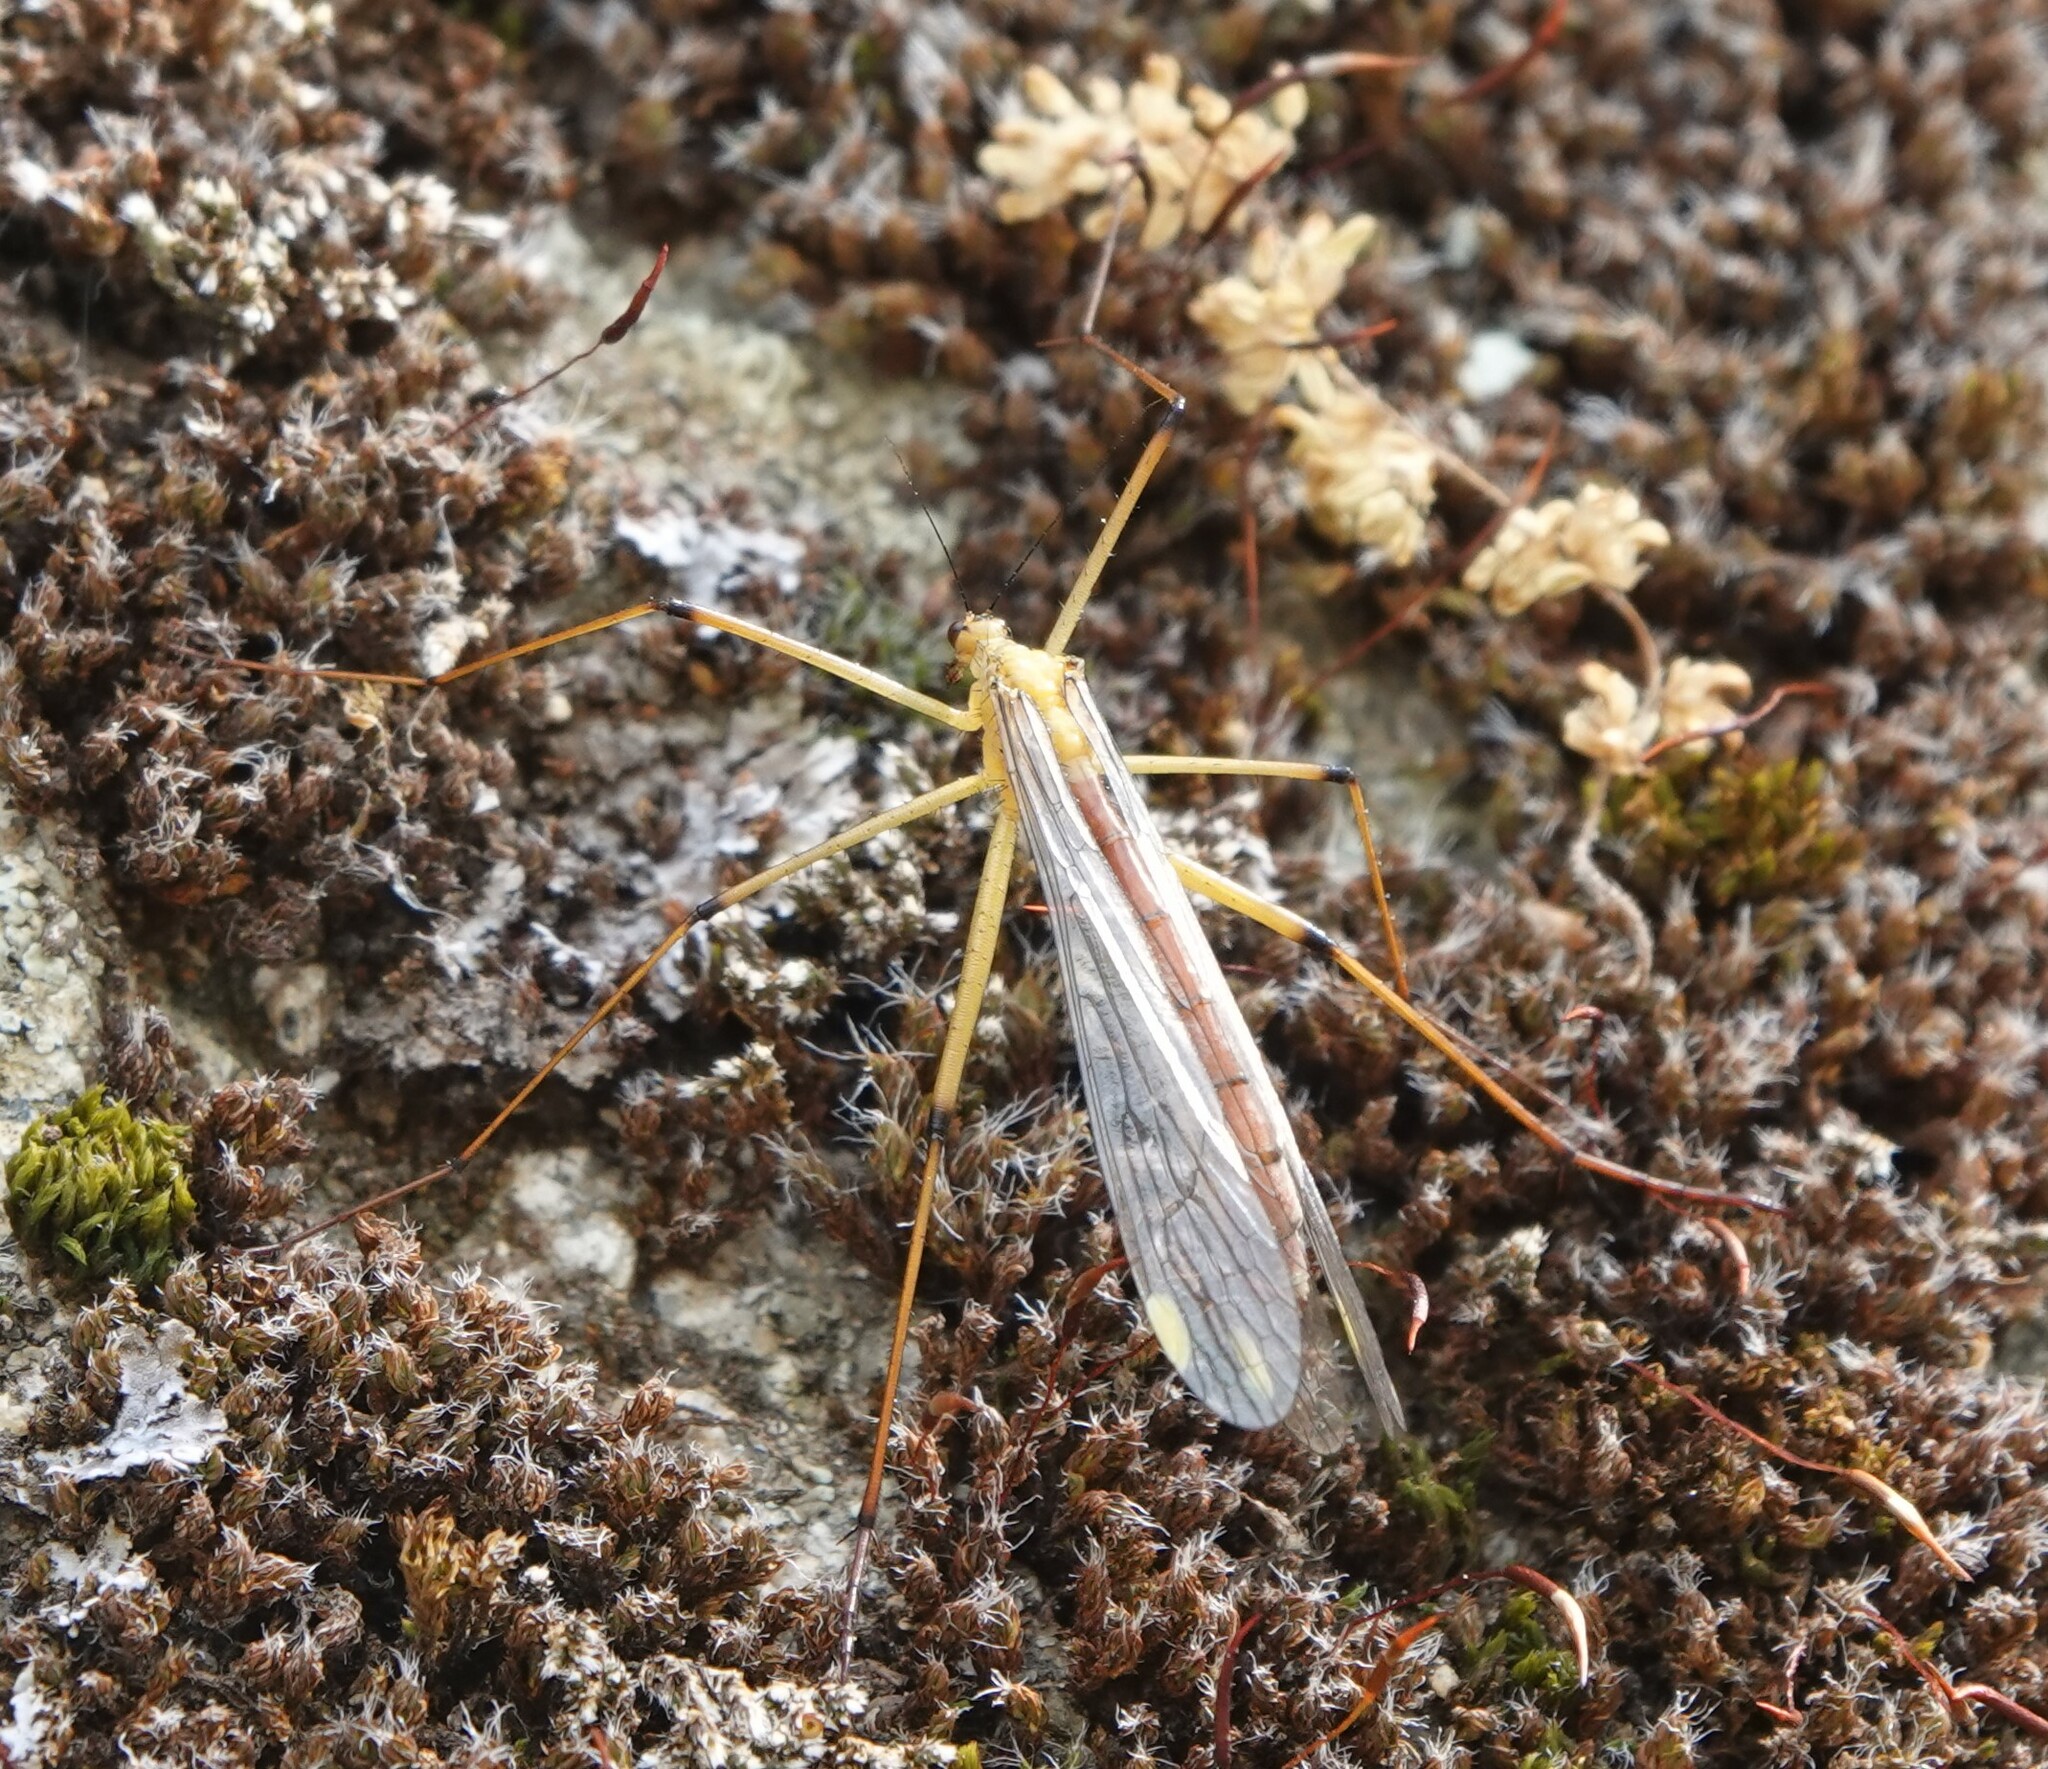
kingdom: Animalia
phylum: Arthropoda
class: Insecta
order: Mecoptera
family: Bittacidae
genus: Bittacus
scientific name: Bittacus chlorostigma
